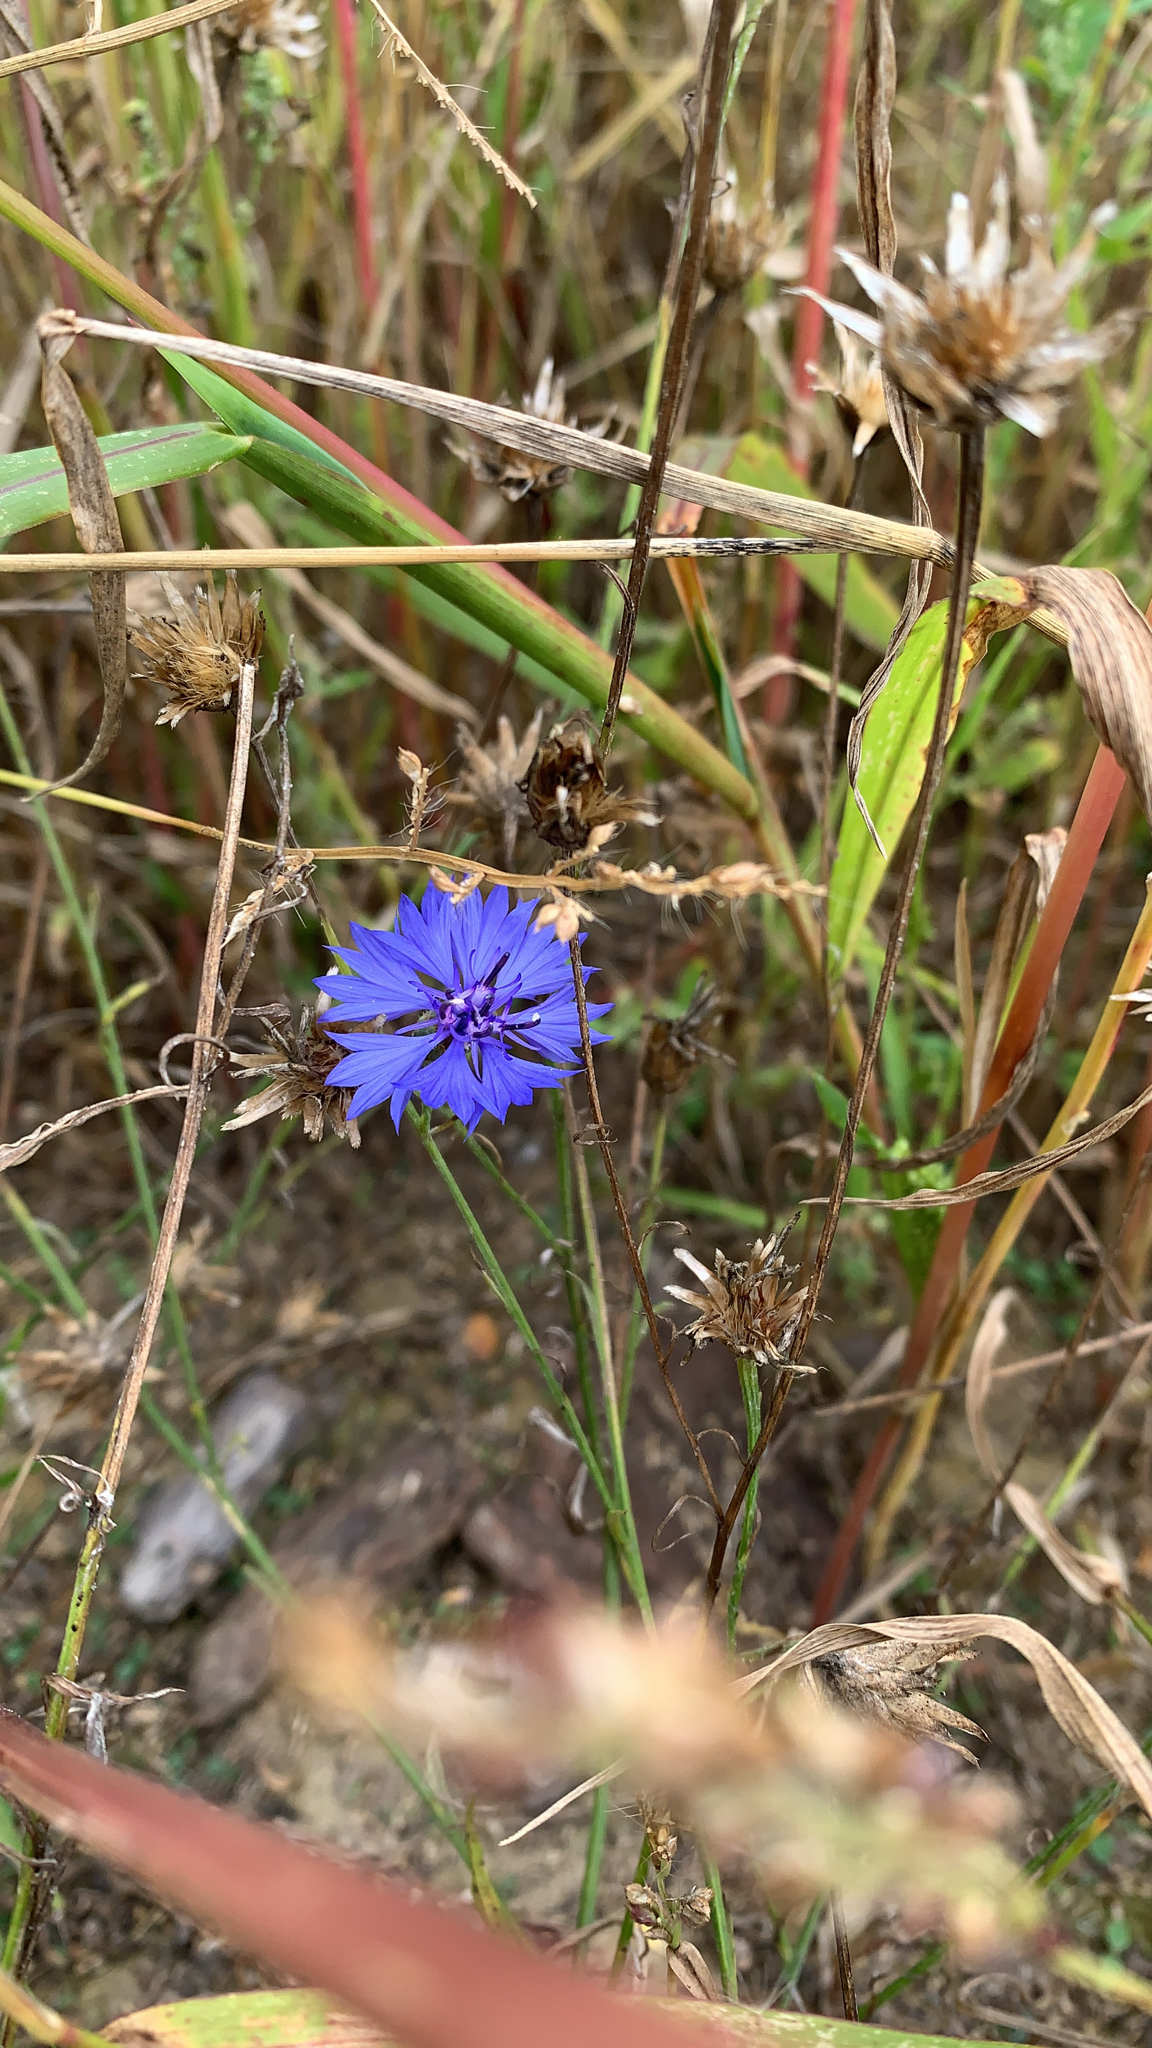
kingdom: Plantae
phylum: Tracheophyta
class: Magnoliopsida
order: Asterales
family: Asteraceae
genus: Centaurea
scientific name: Centaurea cyanus
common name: Cornflower
